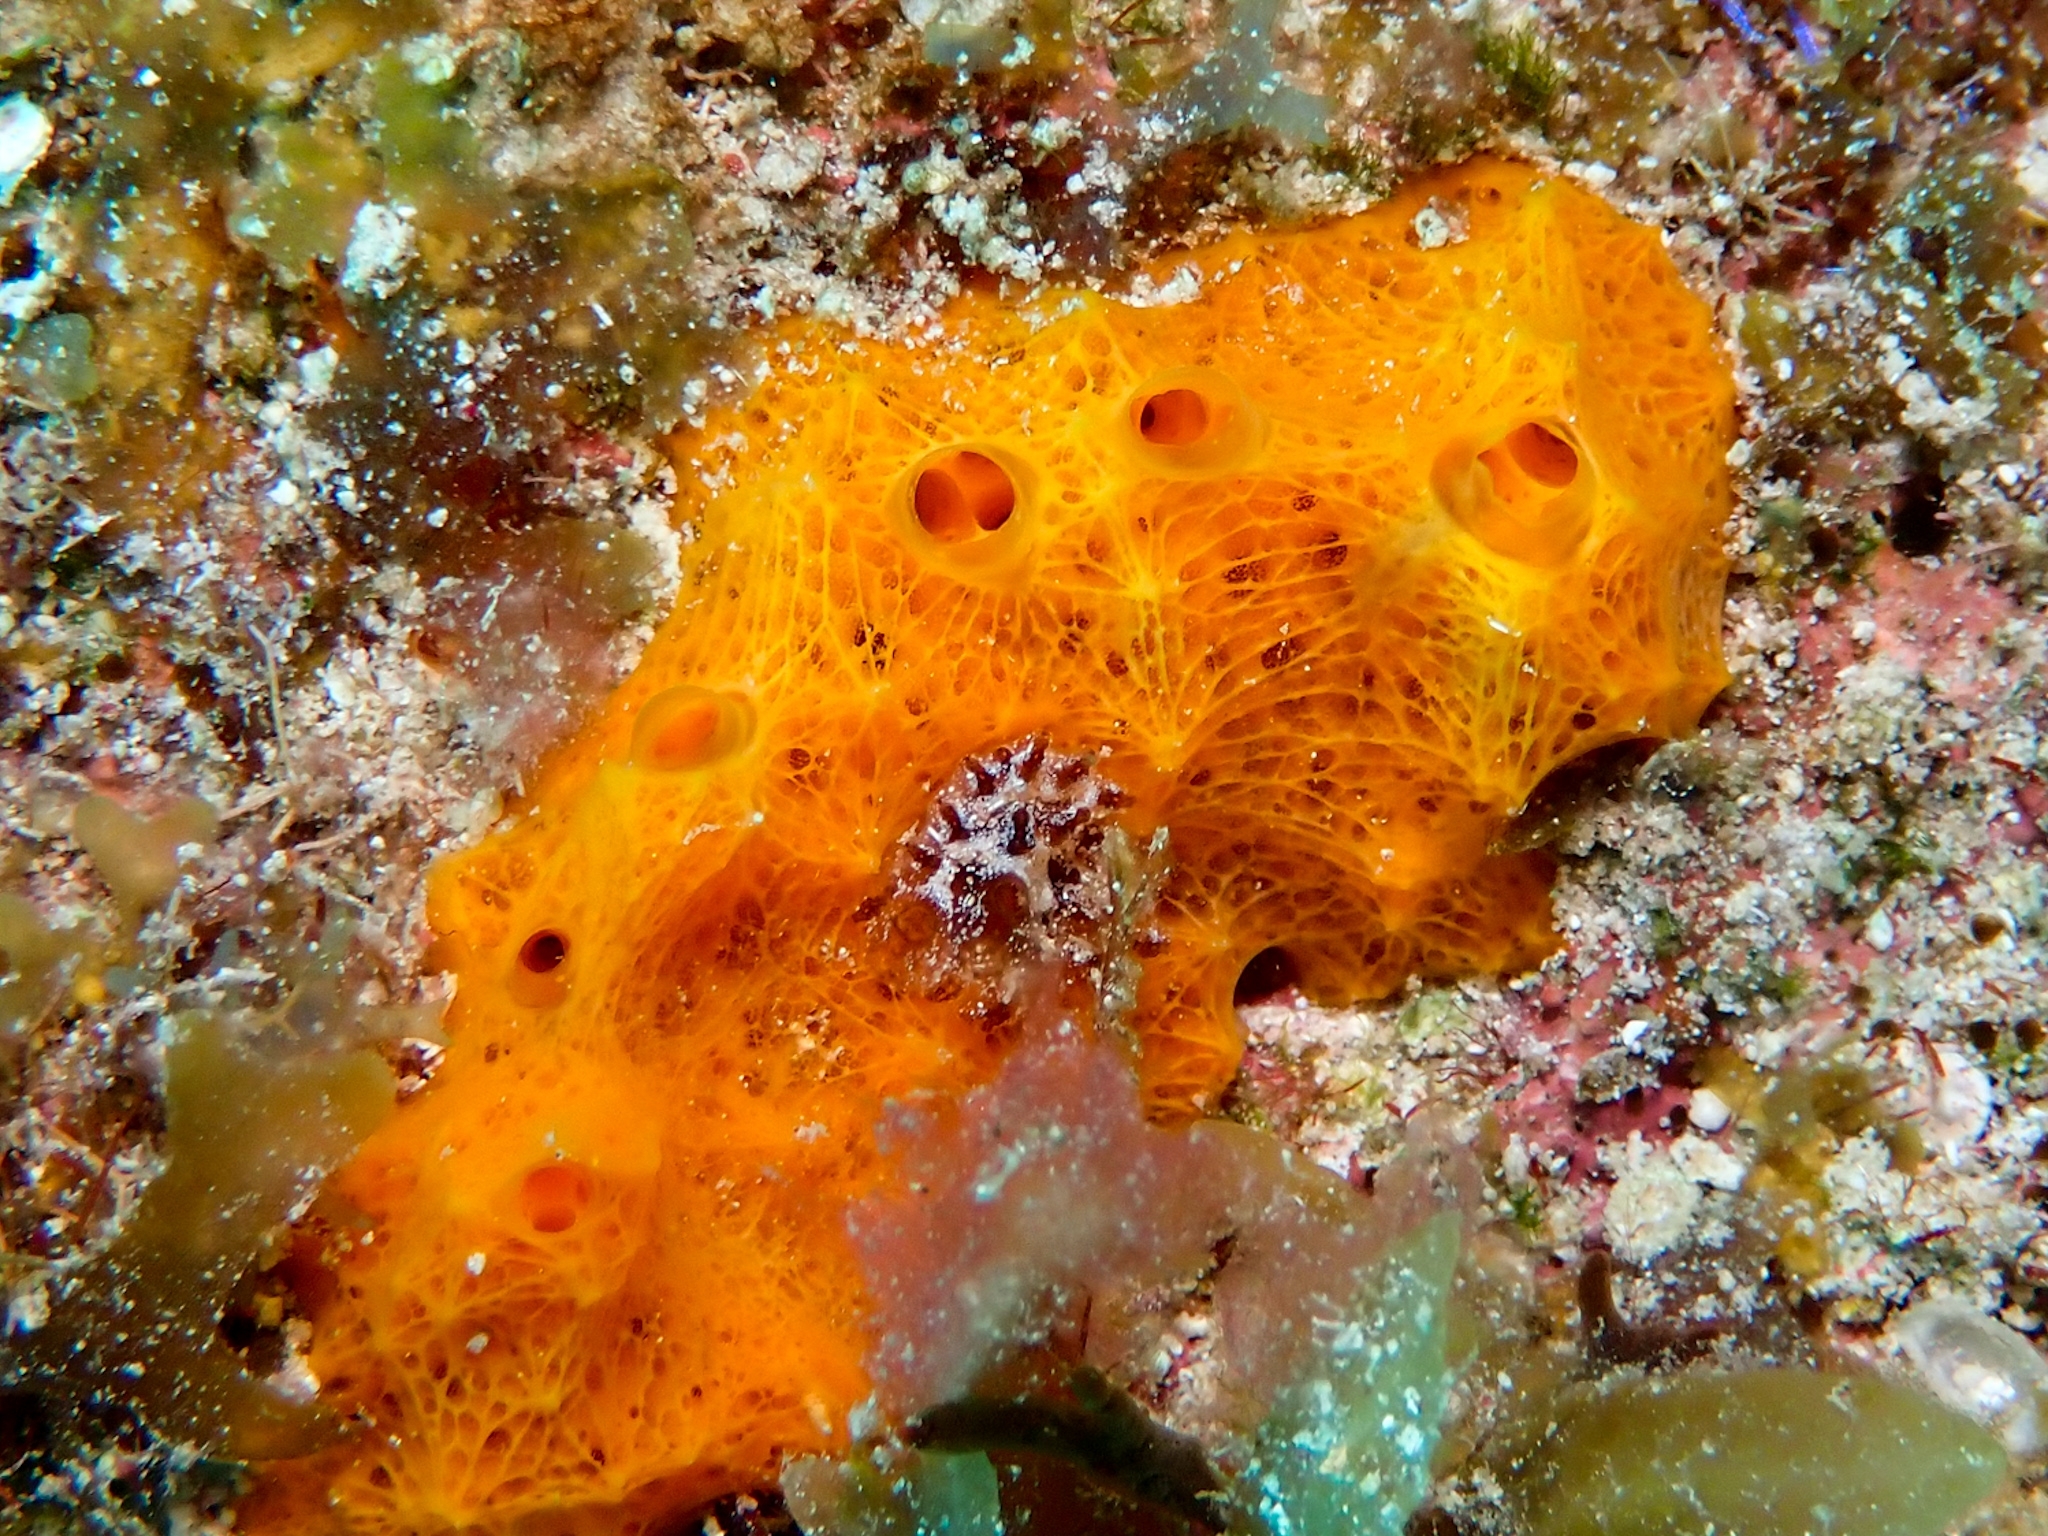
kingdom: Animalia
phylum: Porifera
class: Demospongiae
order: Scopalinida
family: Scopalinidae
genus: Scopalina
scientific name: Scopalina ruetzleri
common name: Orange lumpy encrusting sponge
